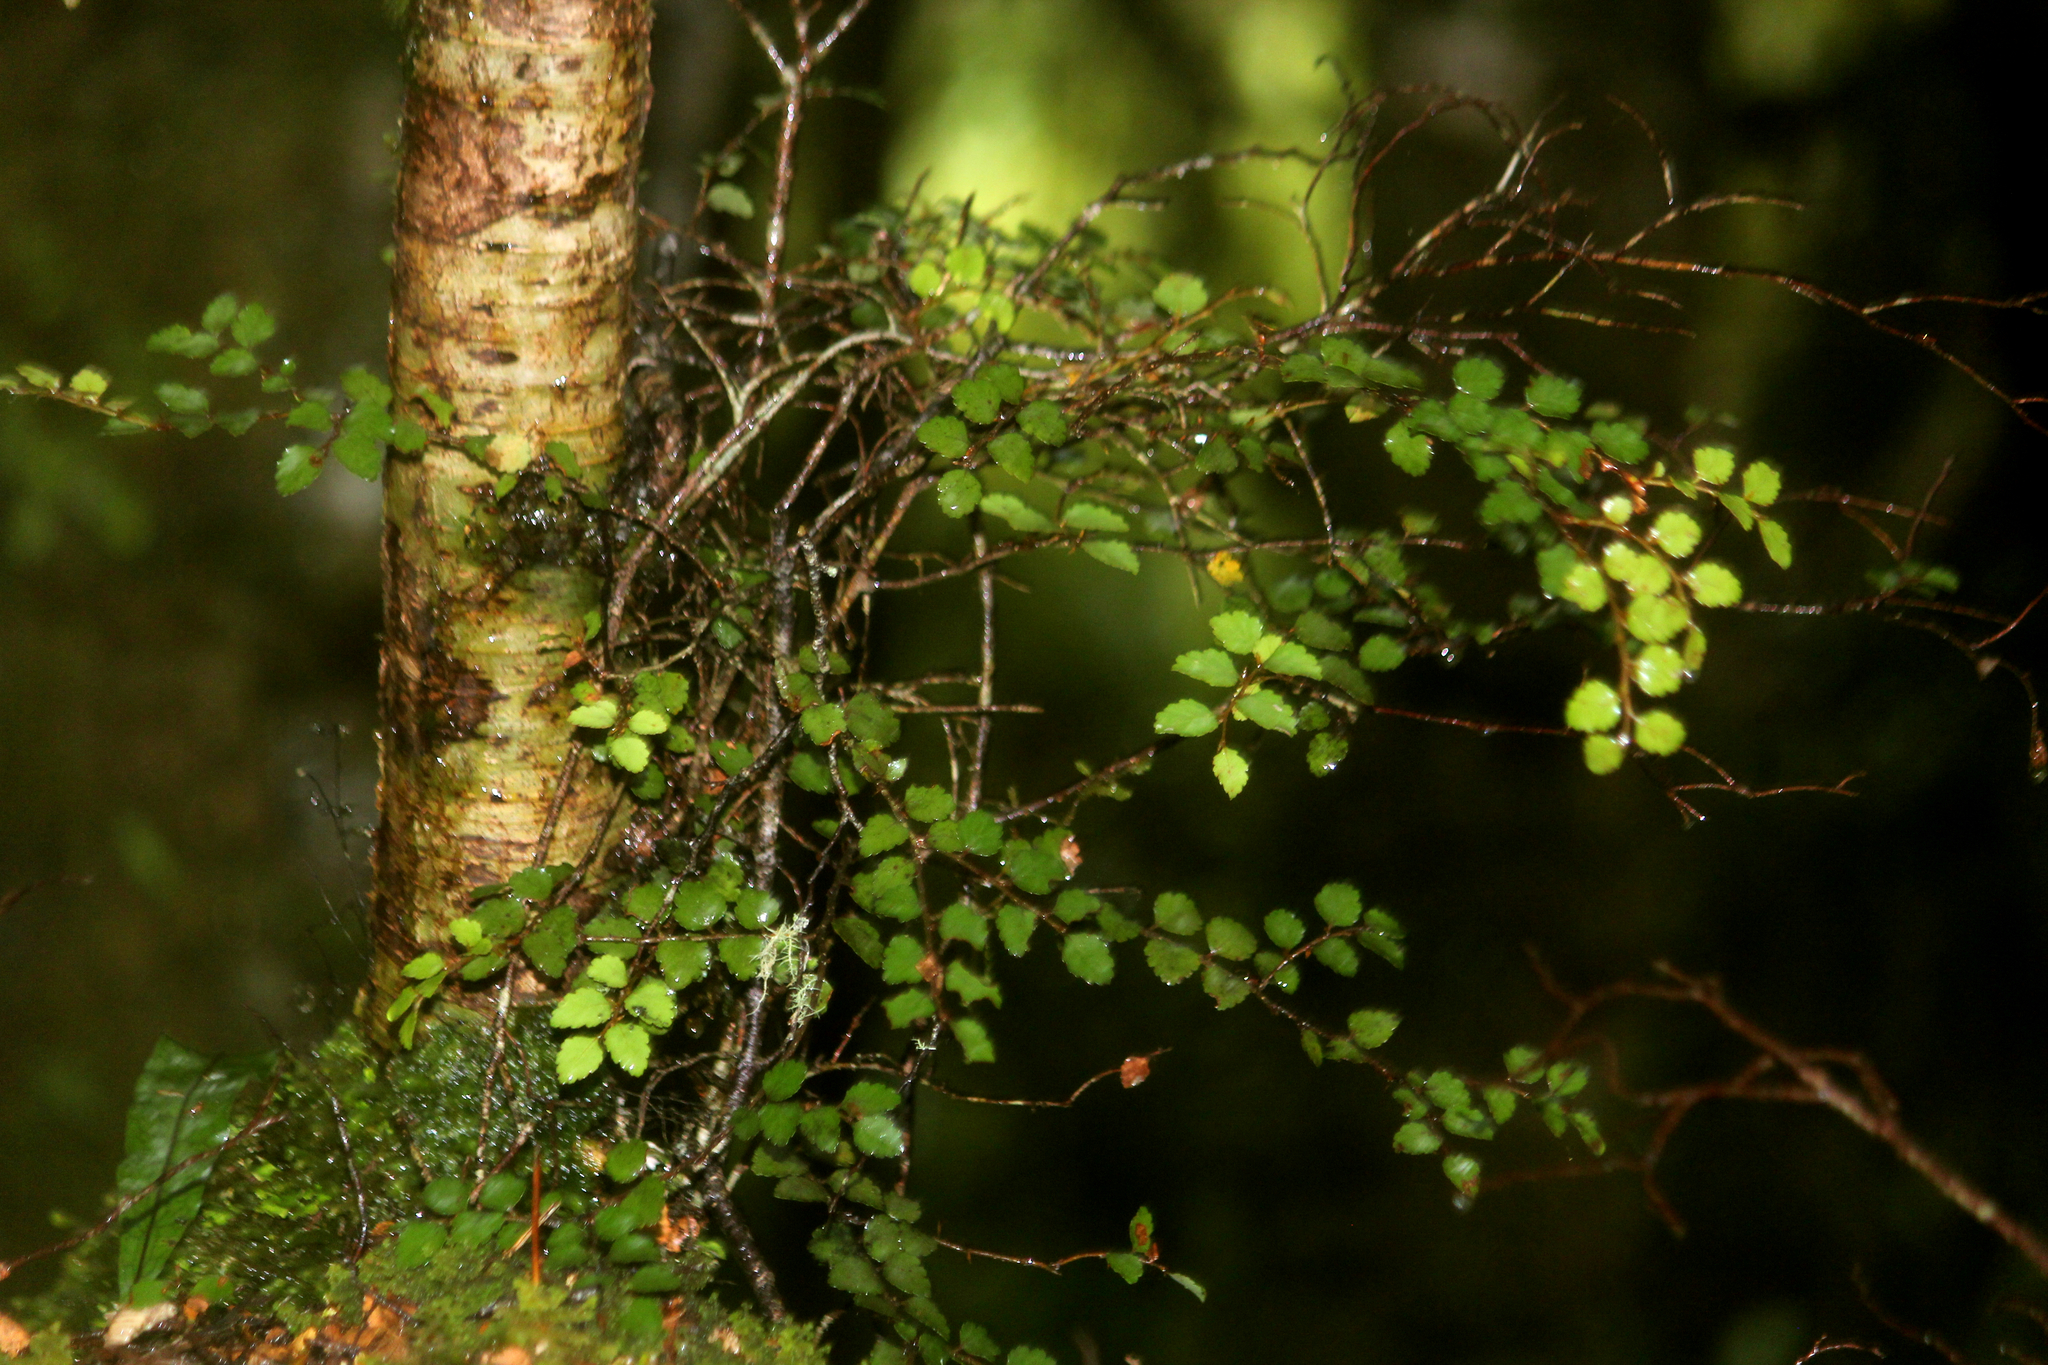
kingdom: Plantae
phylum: Tracheophyta
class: Magnoliopsida
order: Fagales
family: Nothofagaceae
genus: Nothofagus
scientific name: Nothofagus menziesii
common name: Silver beech
